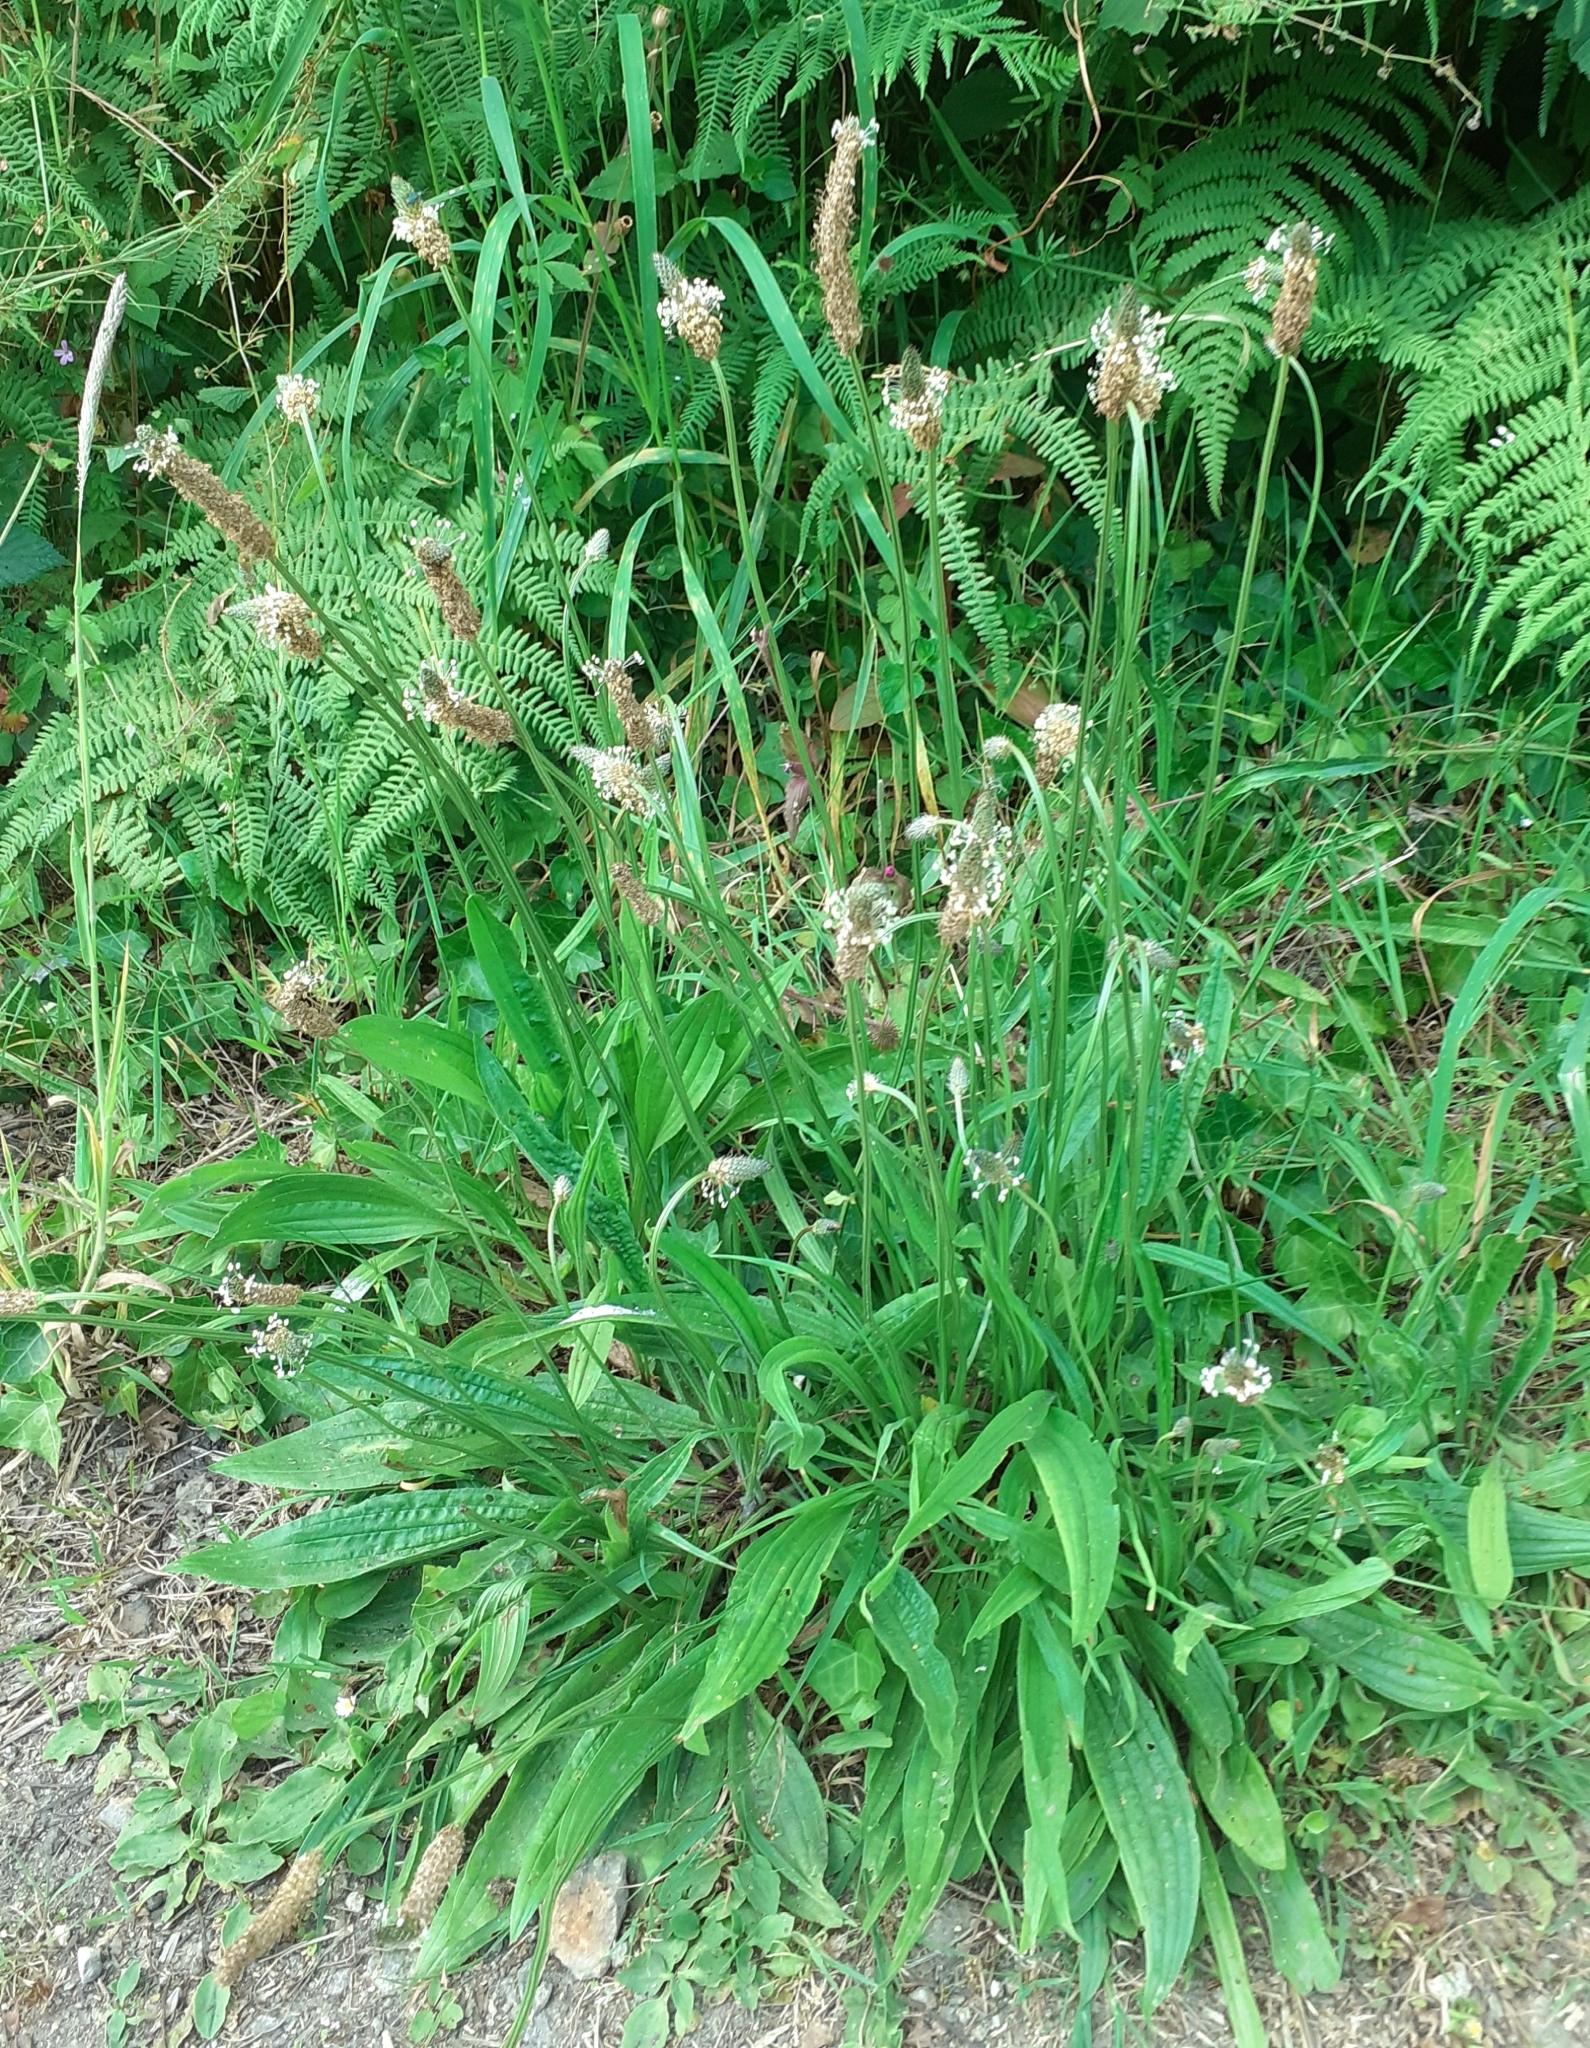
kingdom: Plantae
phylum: Tracheophyta
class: Magnoliopsida
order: Lamiales
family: Plantaginaceae
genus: Plantago
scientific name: Plantago lanceolata
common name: Ribwort plantain
